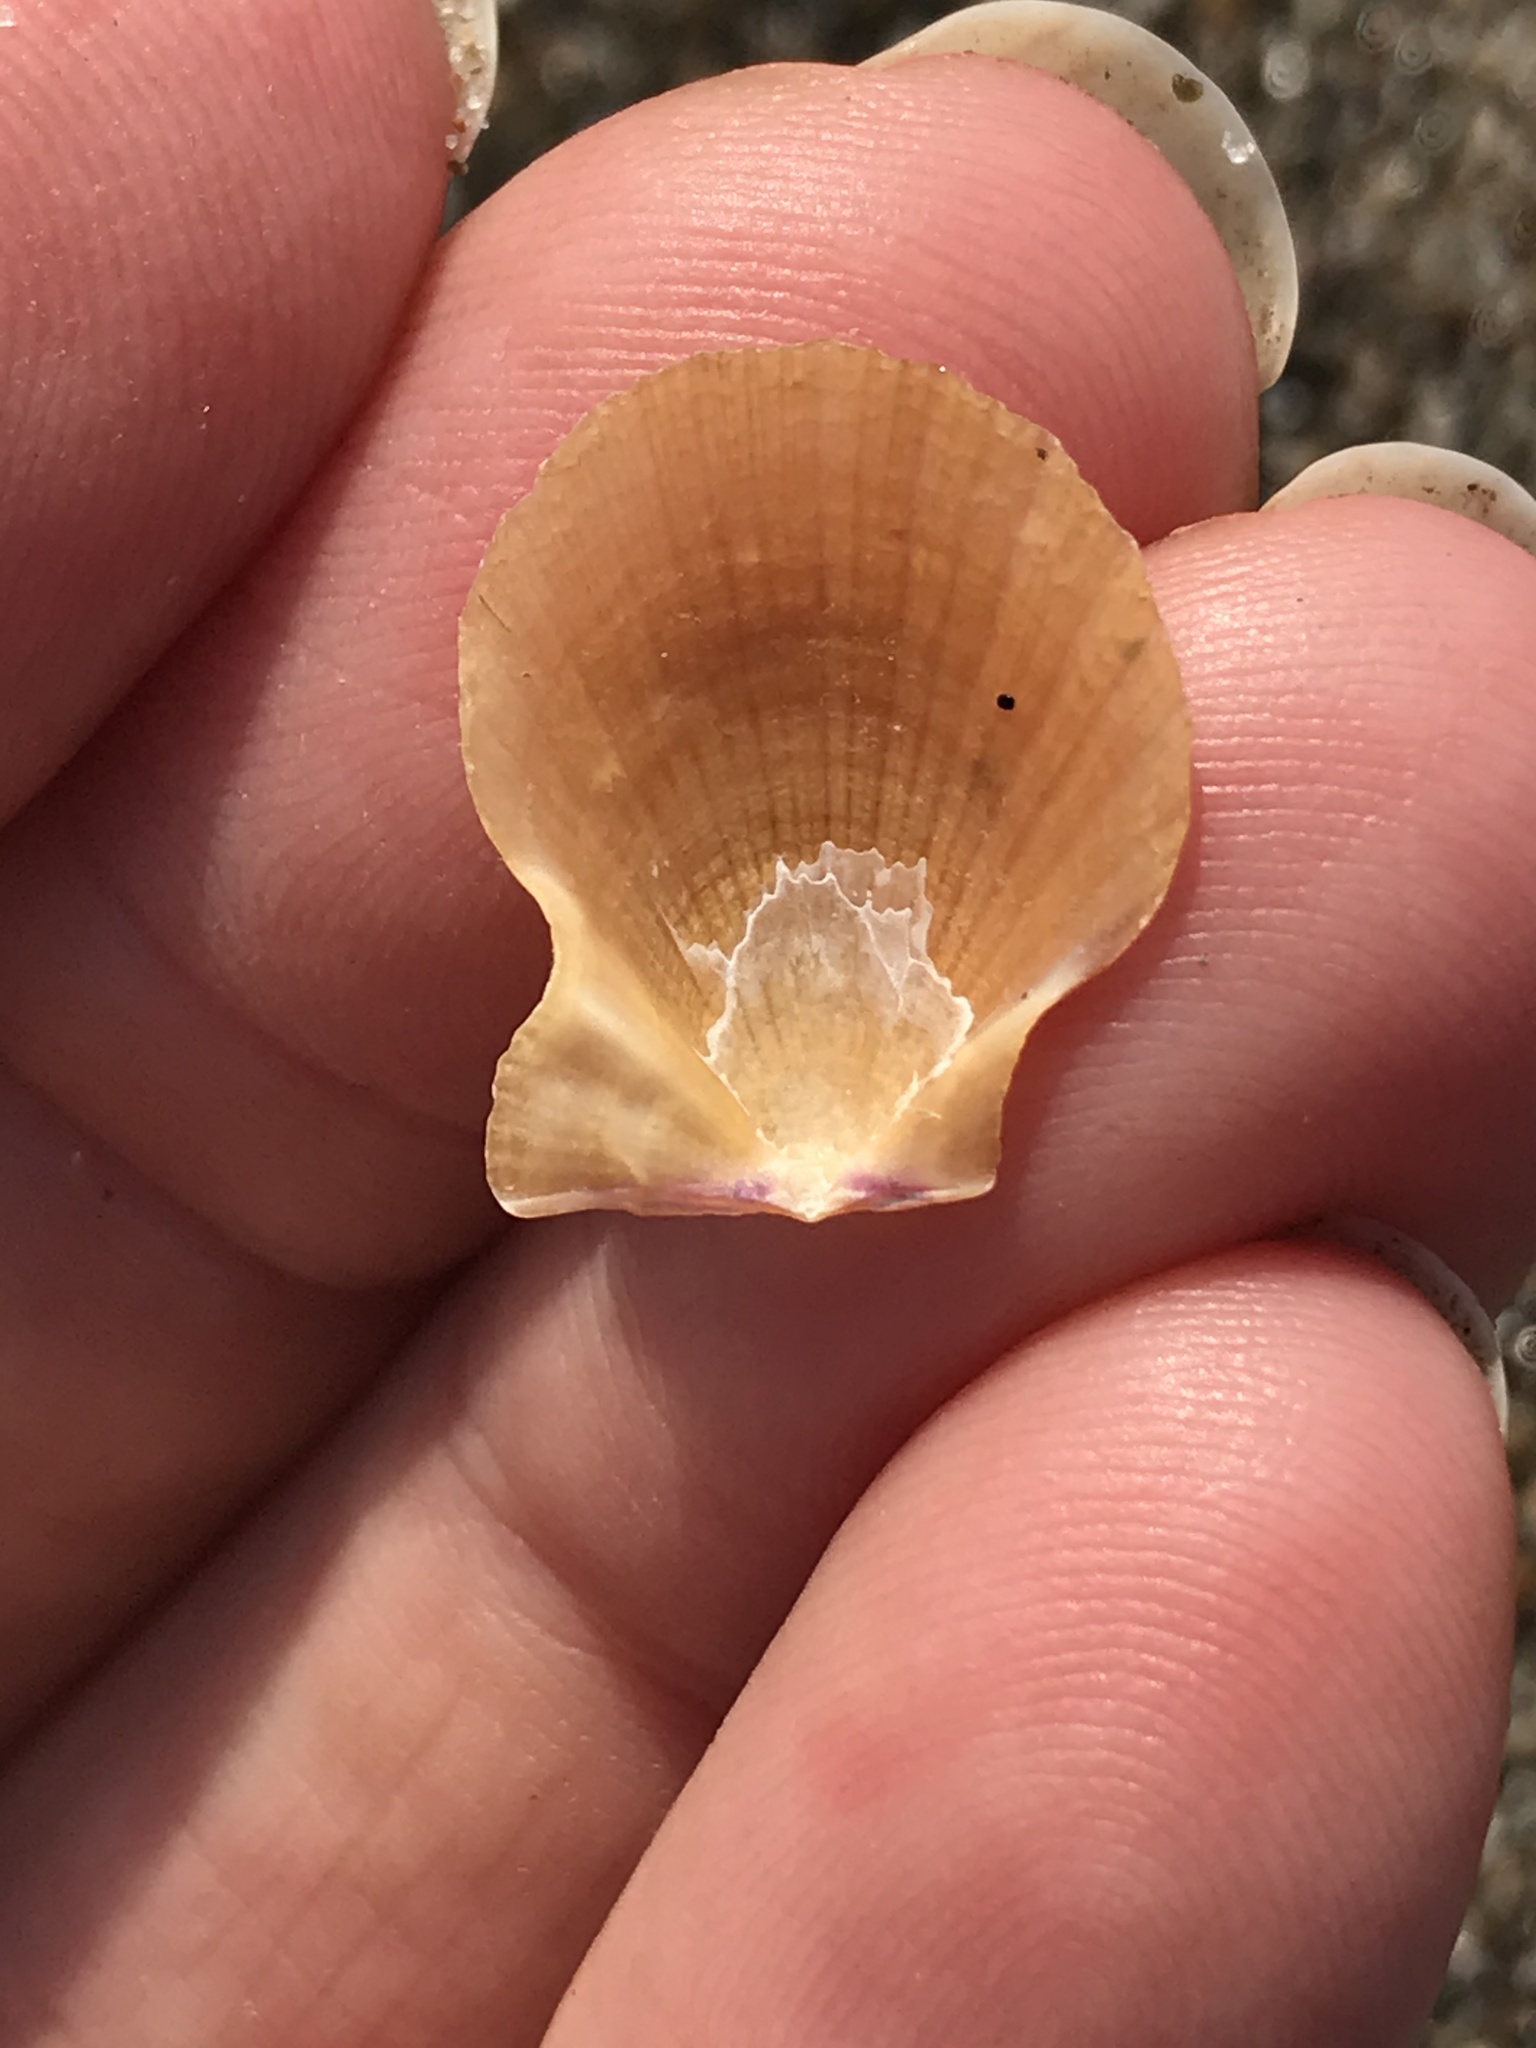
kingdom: Animalia
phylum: Mollusca
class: Bivalvia
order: Pectinida
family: Pectinidae
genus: Crassadoma
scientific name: Crassadoma gigantea
